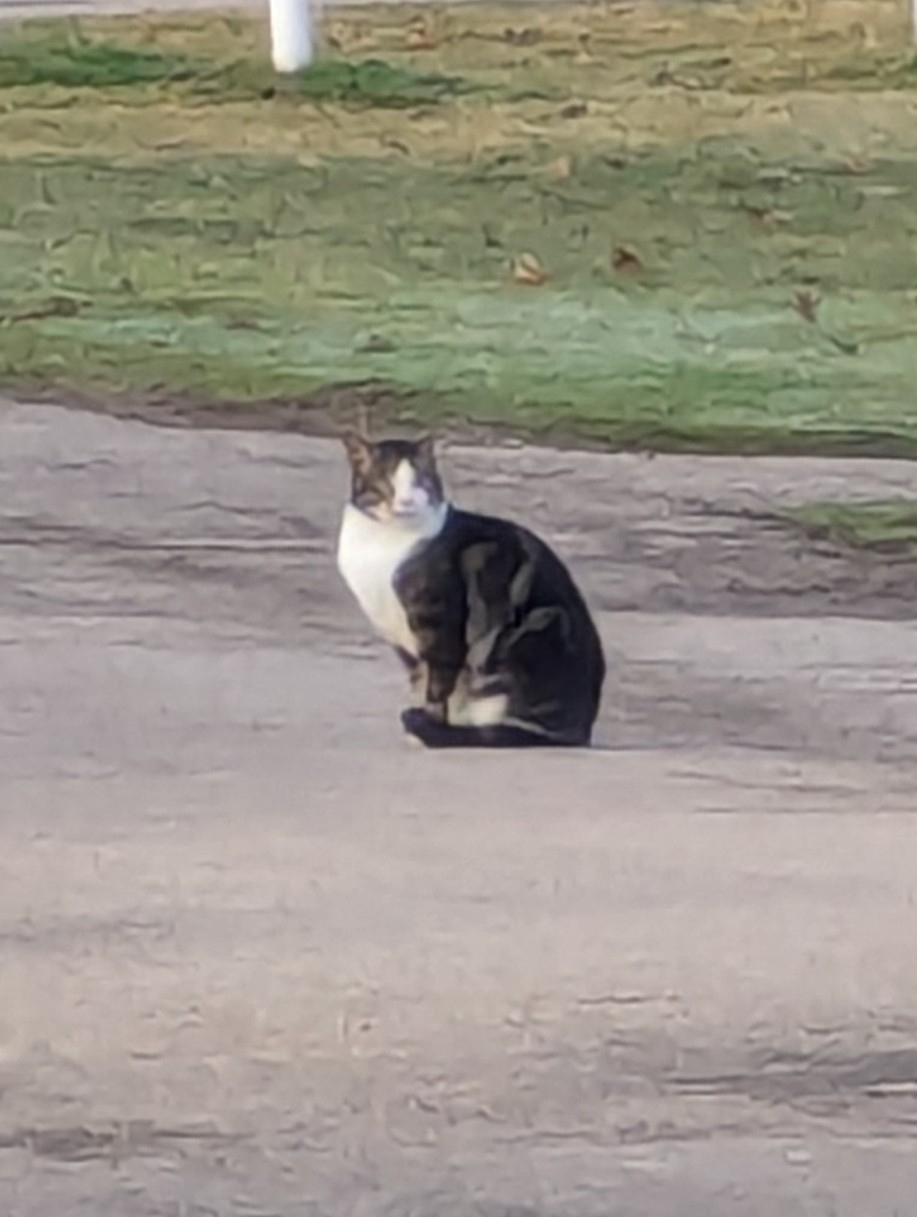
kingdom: Animalia
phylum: Chordata
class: Mammalia
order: Carnivora
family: Felidae
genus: Felis
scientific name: Felis catus
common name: Domestic cat
